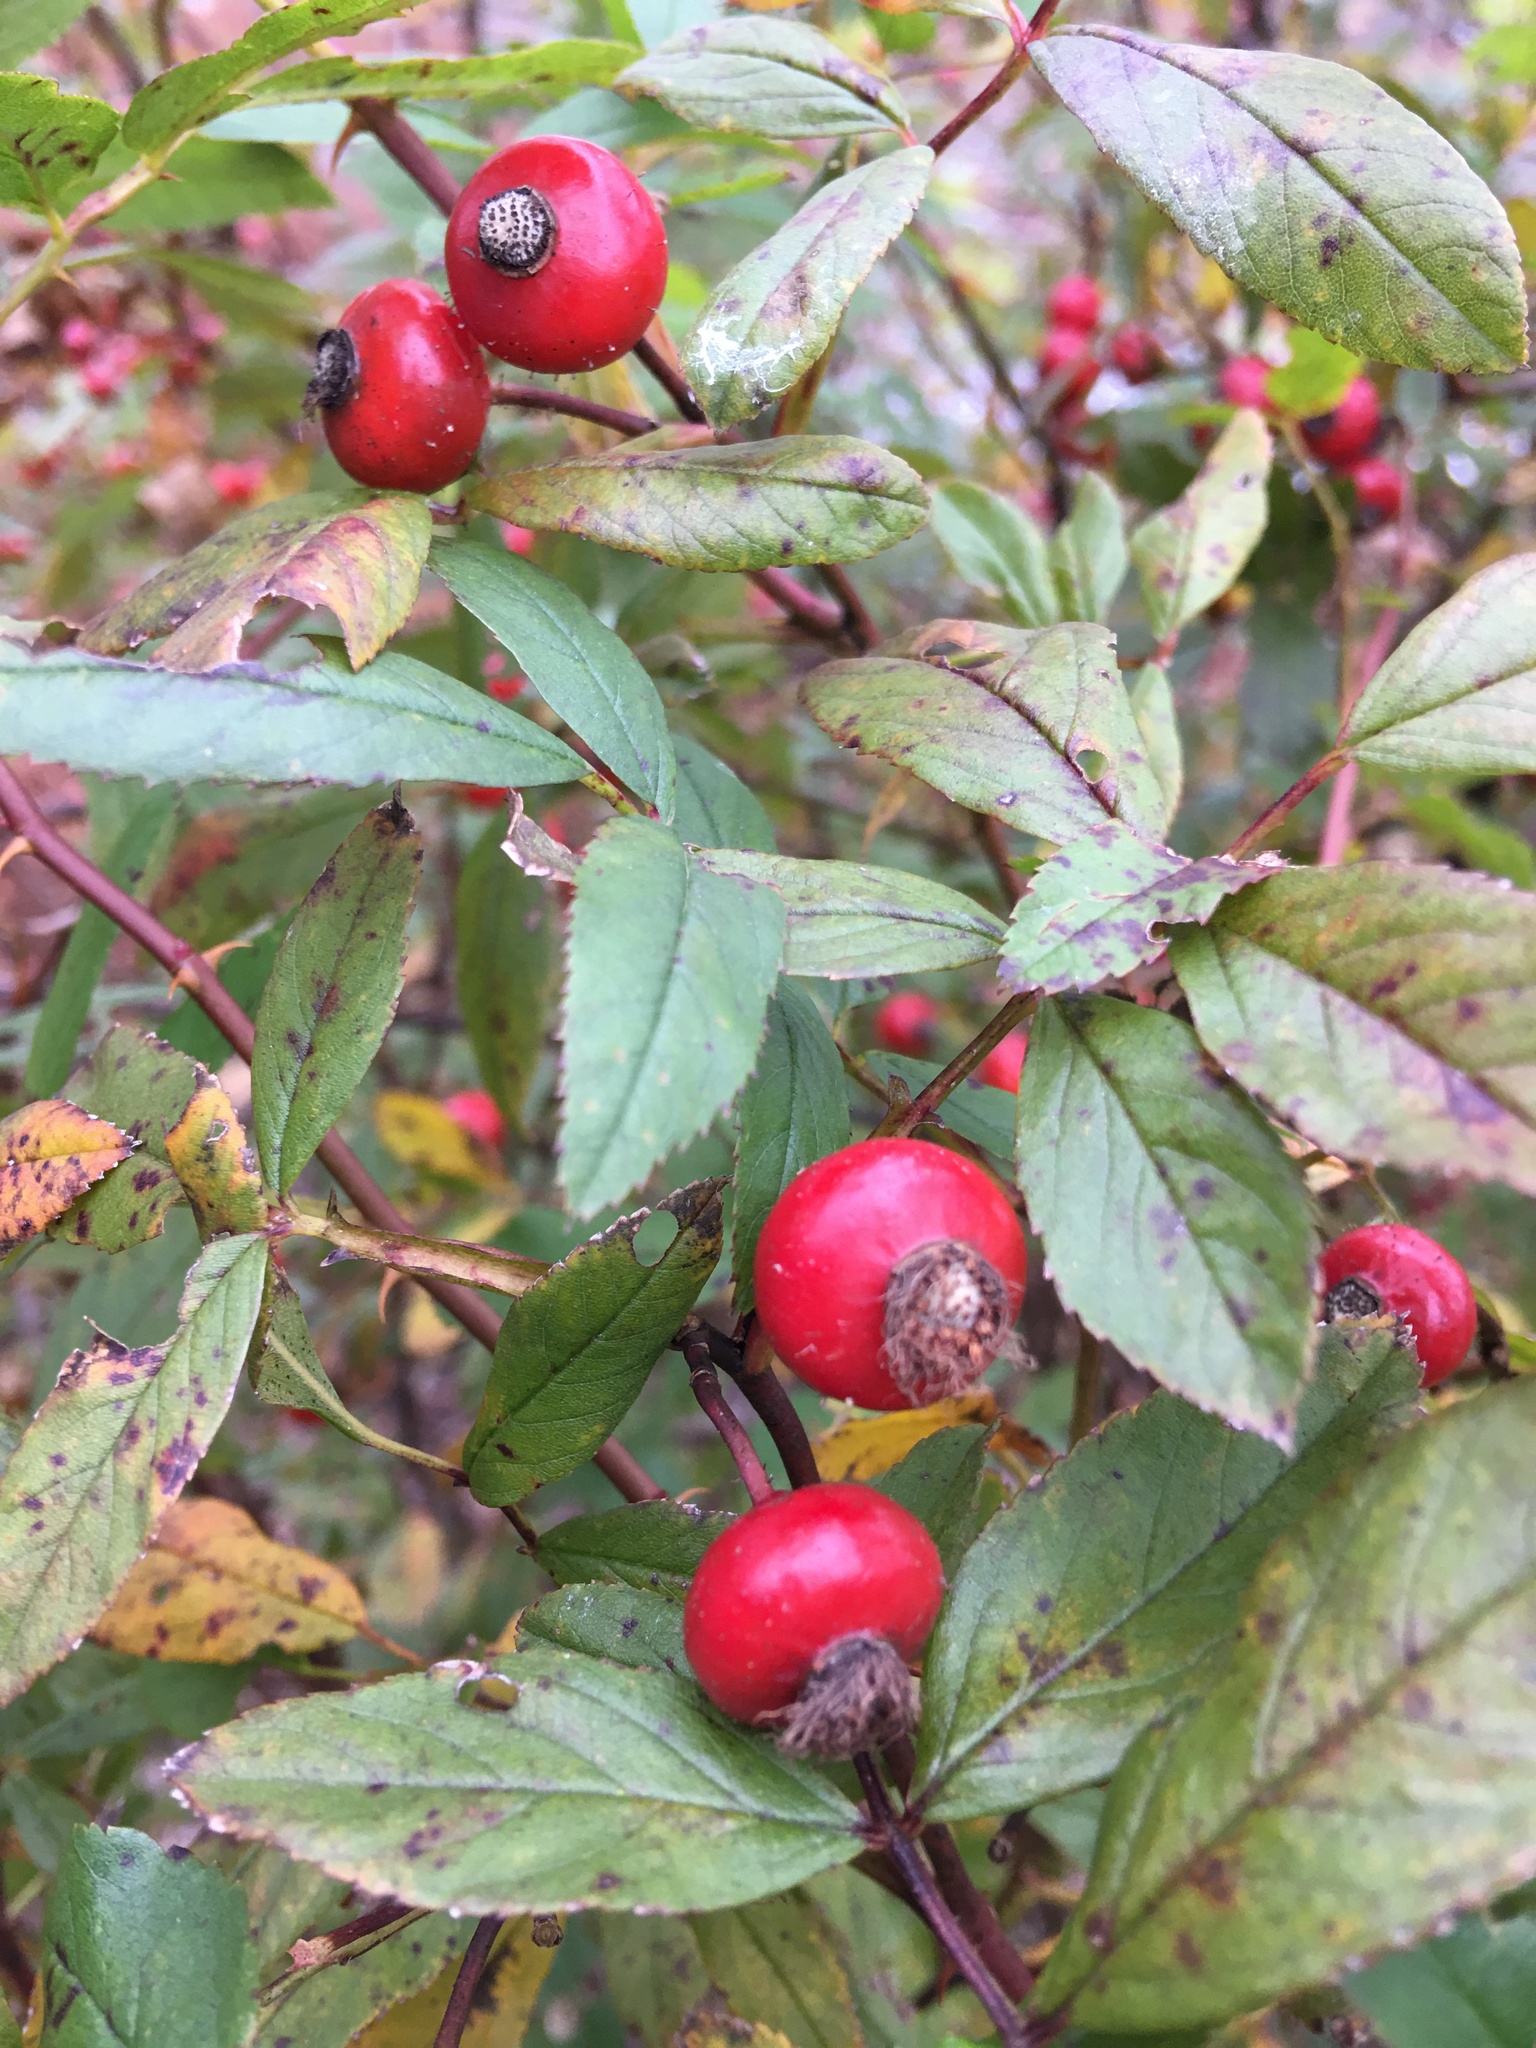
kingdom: Plantae
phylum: Tracheophyta
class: Magnoliopsida
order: Rosales
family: Rosaceae
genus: Rosa
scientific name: Rosa palustris
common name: Swamp rose
